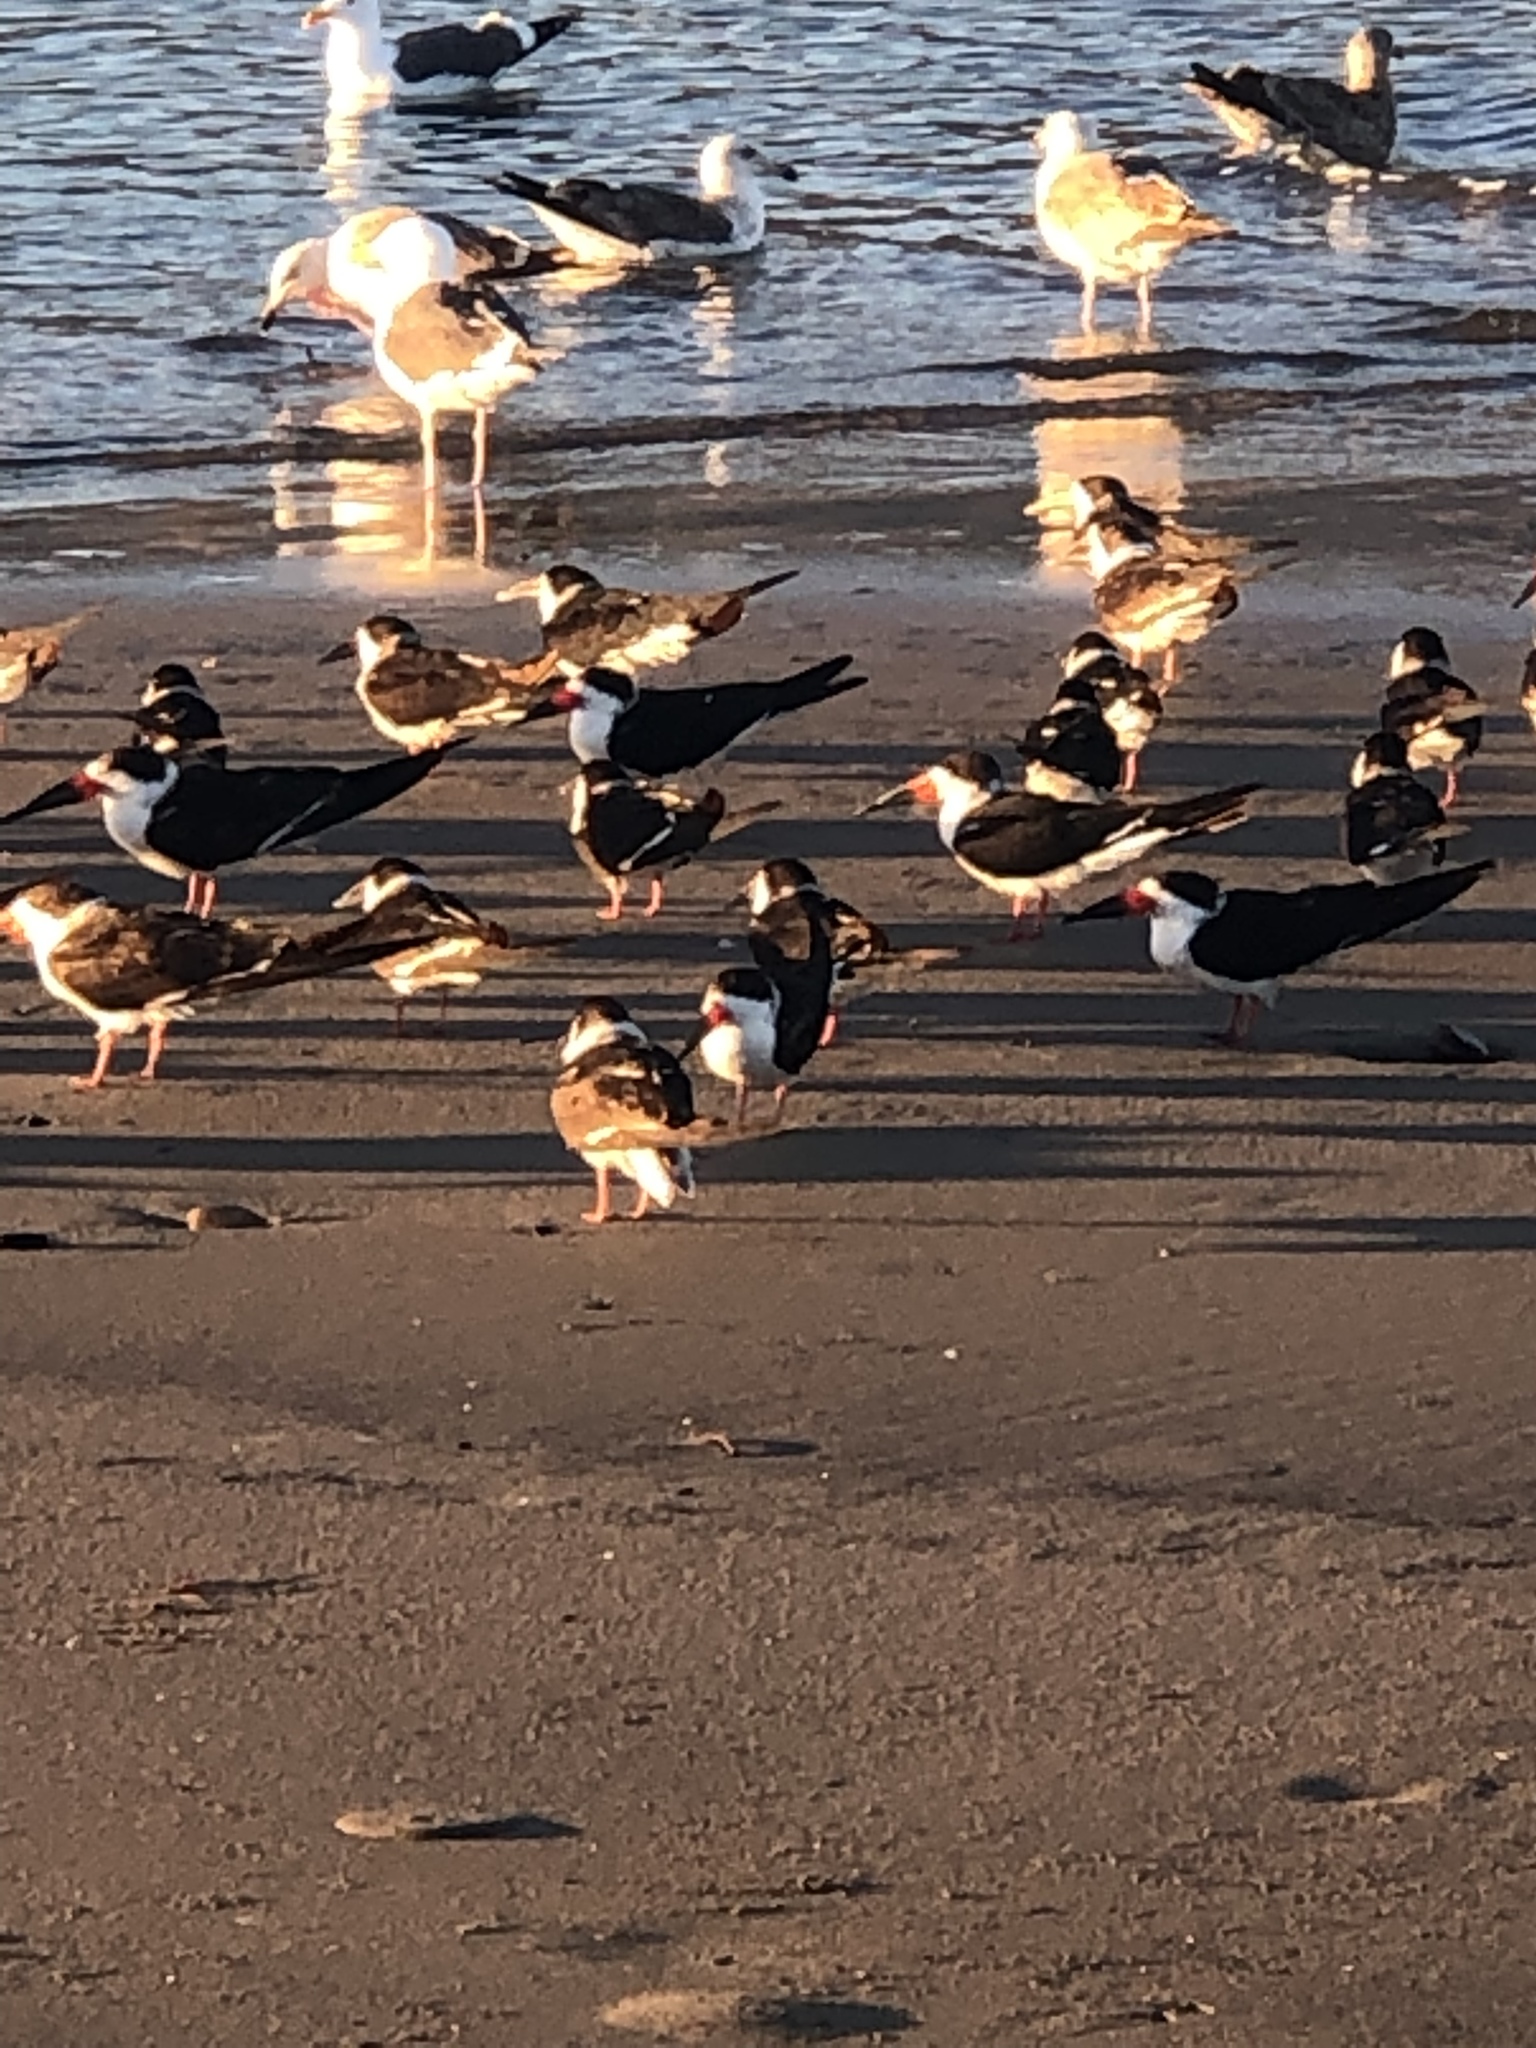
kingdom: Animalia
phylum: Chordata
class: Aves
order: Charadriiformes
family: Laridae
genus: Rynchops
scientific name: Rynchops niger
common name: Black skimmer
